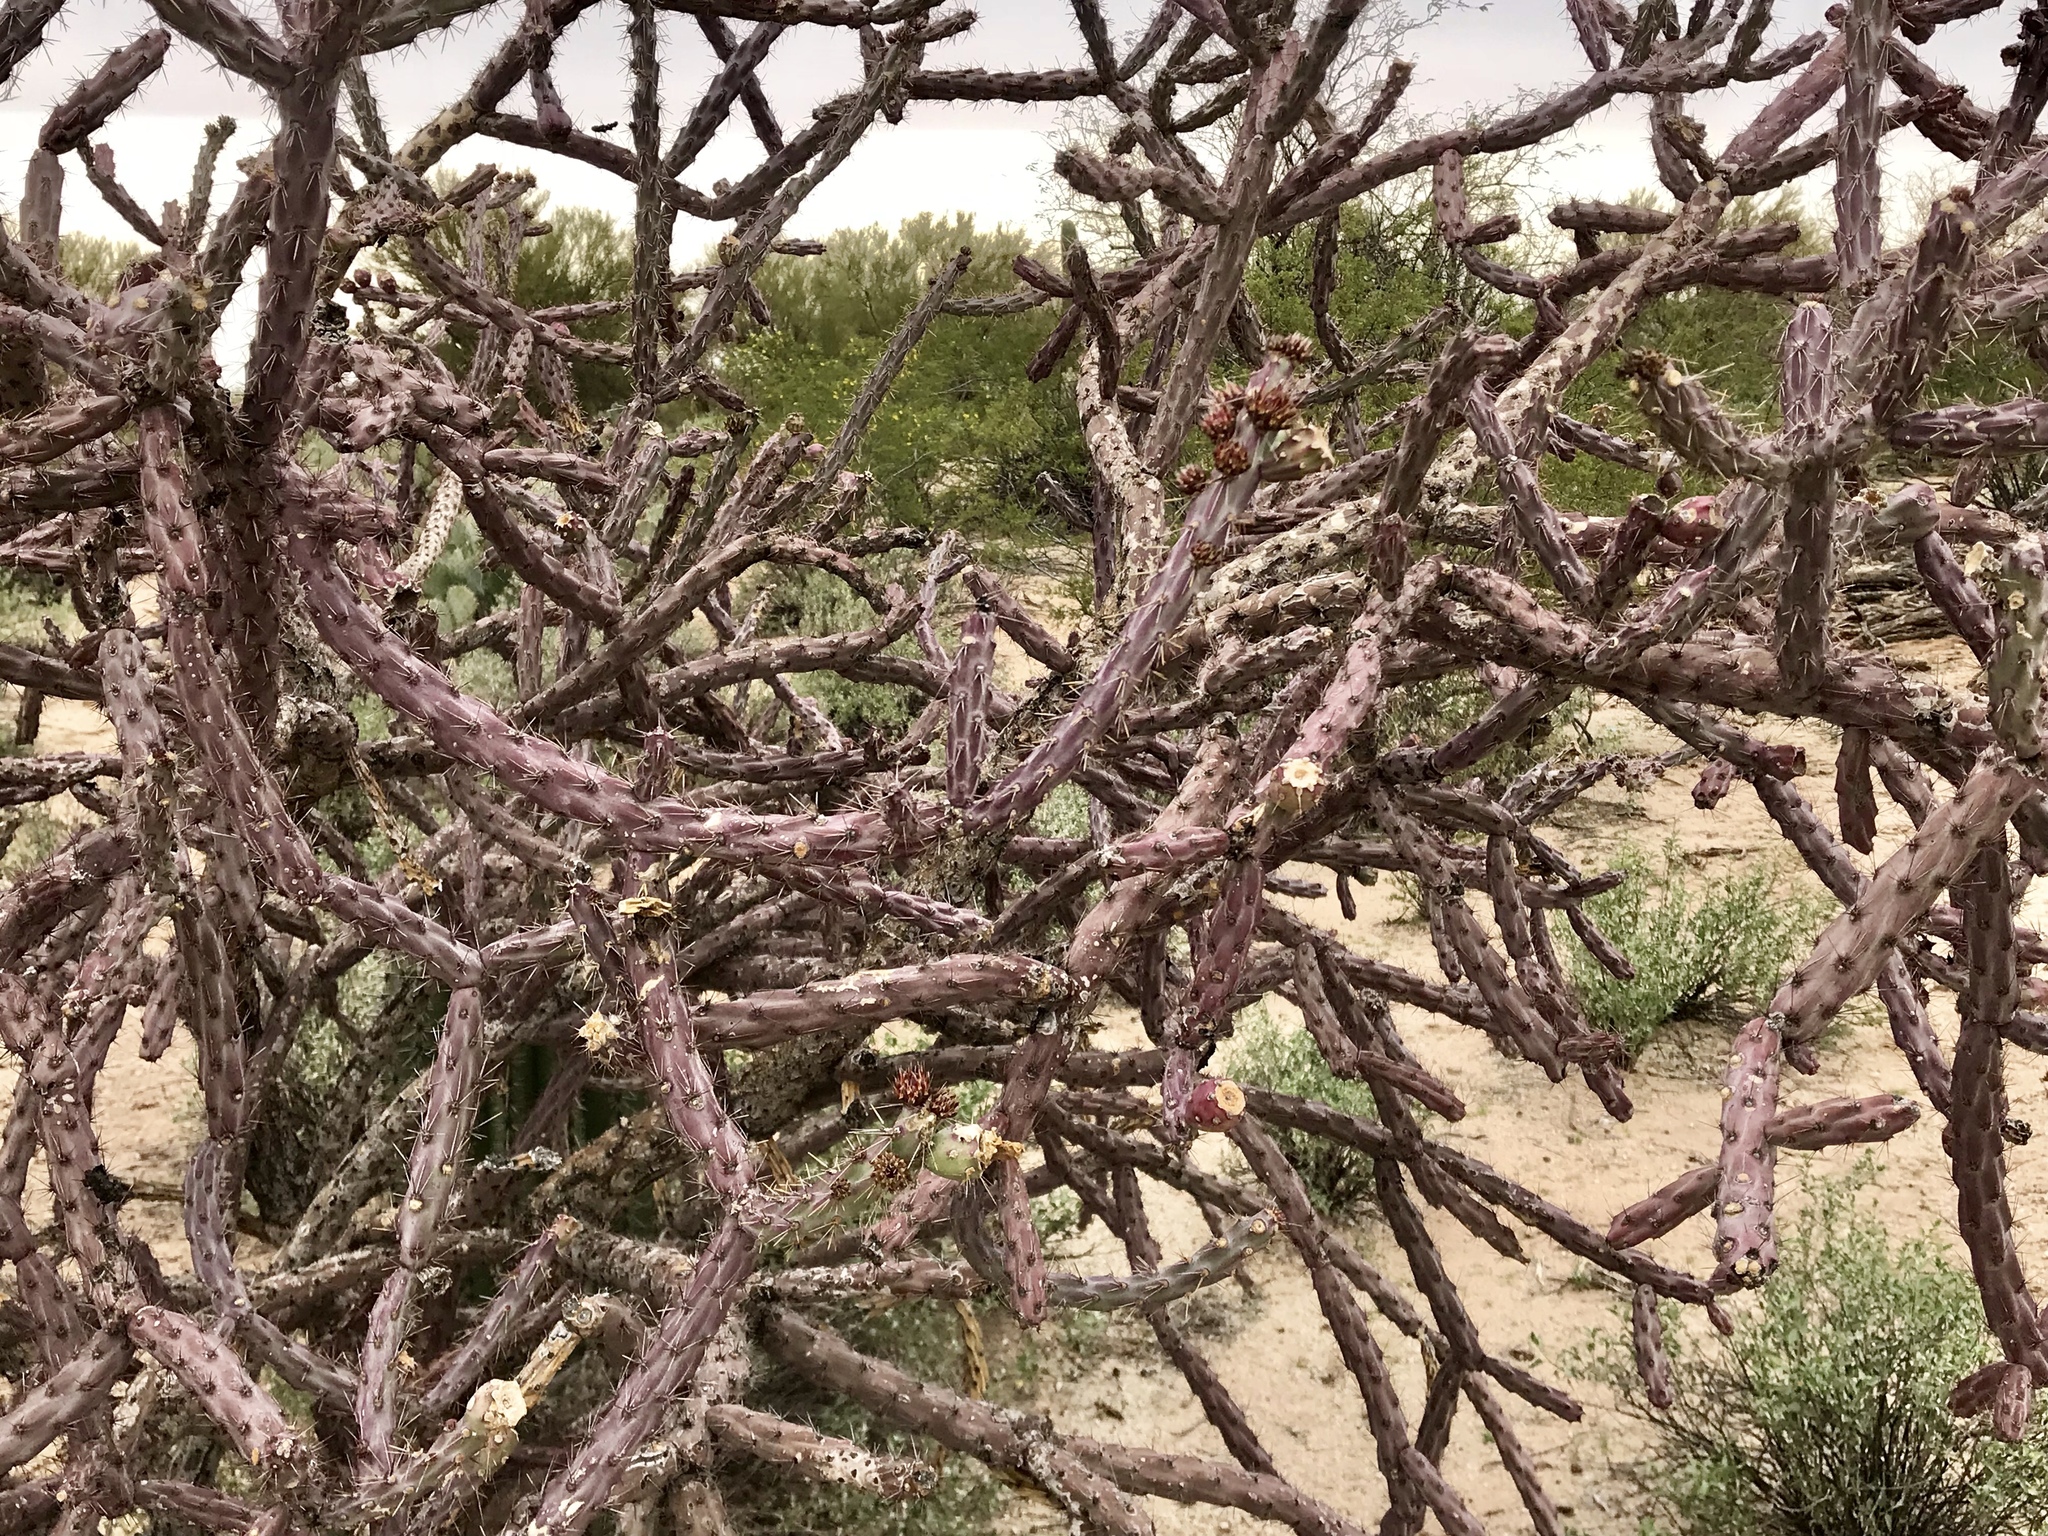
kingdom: Plantae
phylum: Tracheophyta
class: Magnoliopsida
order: Caryophyllales
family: Cactaceae
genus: Cylindropuntia
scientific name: Cylindropuntia thurberi
